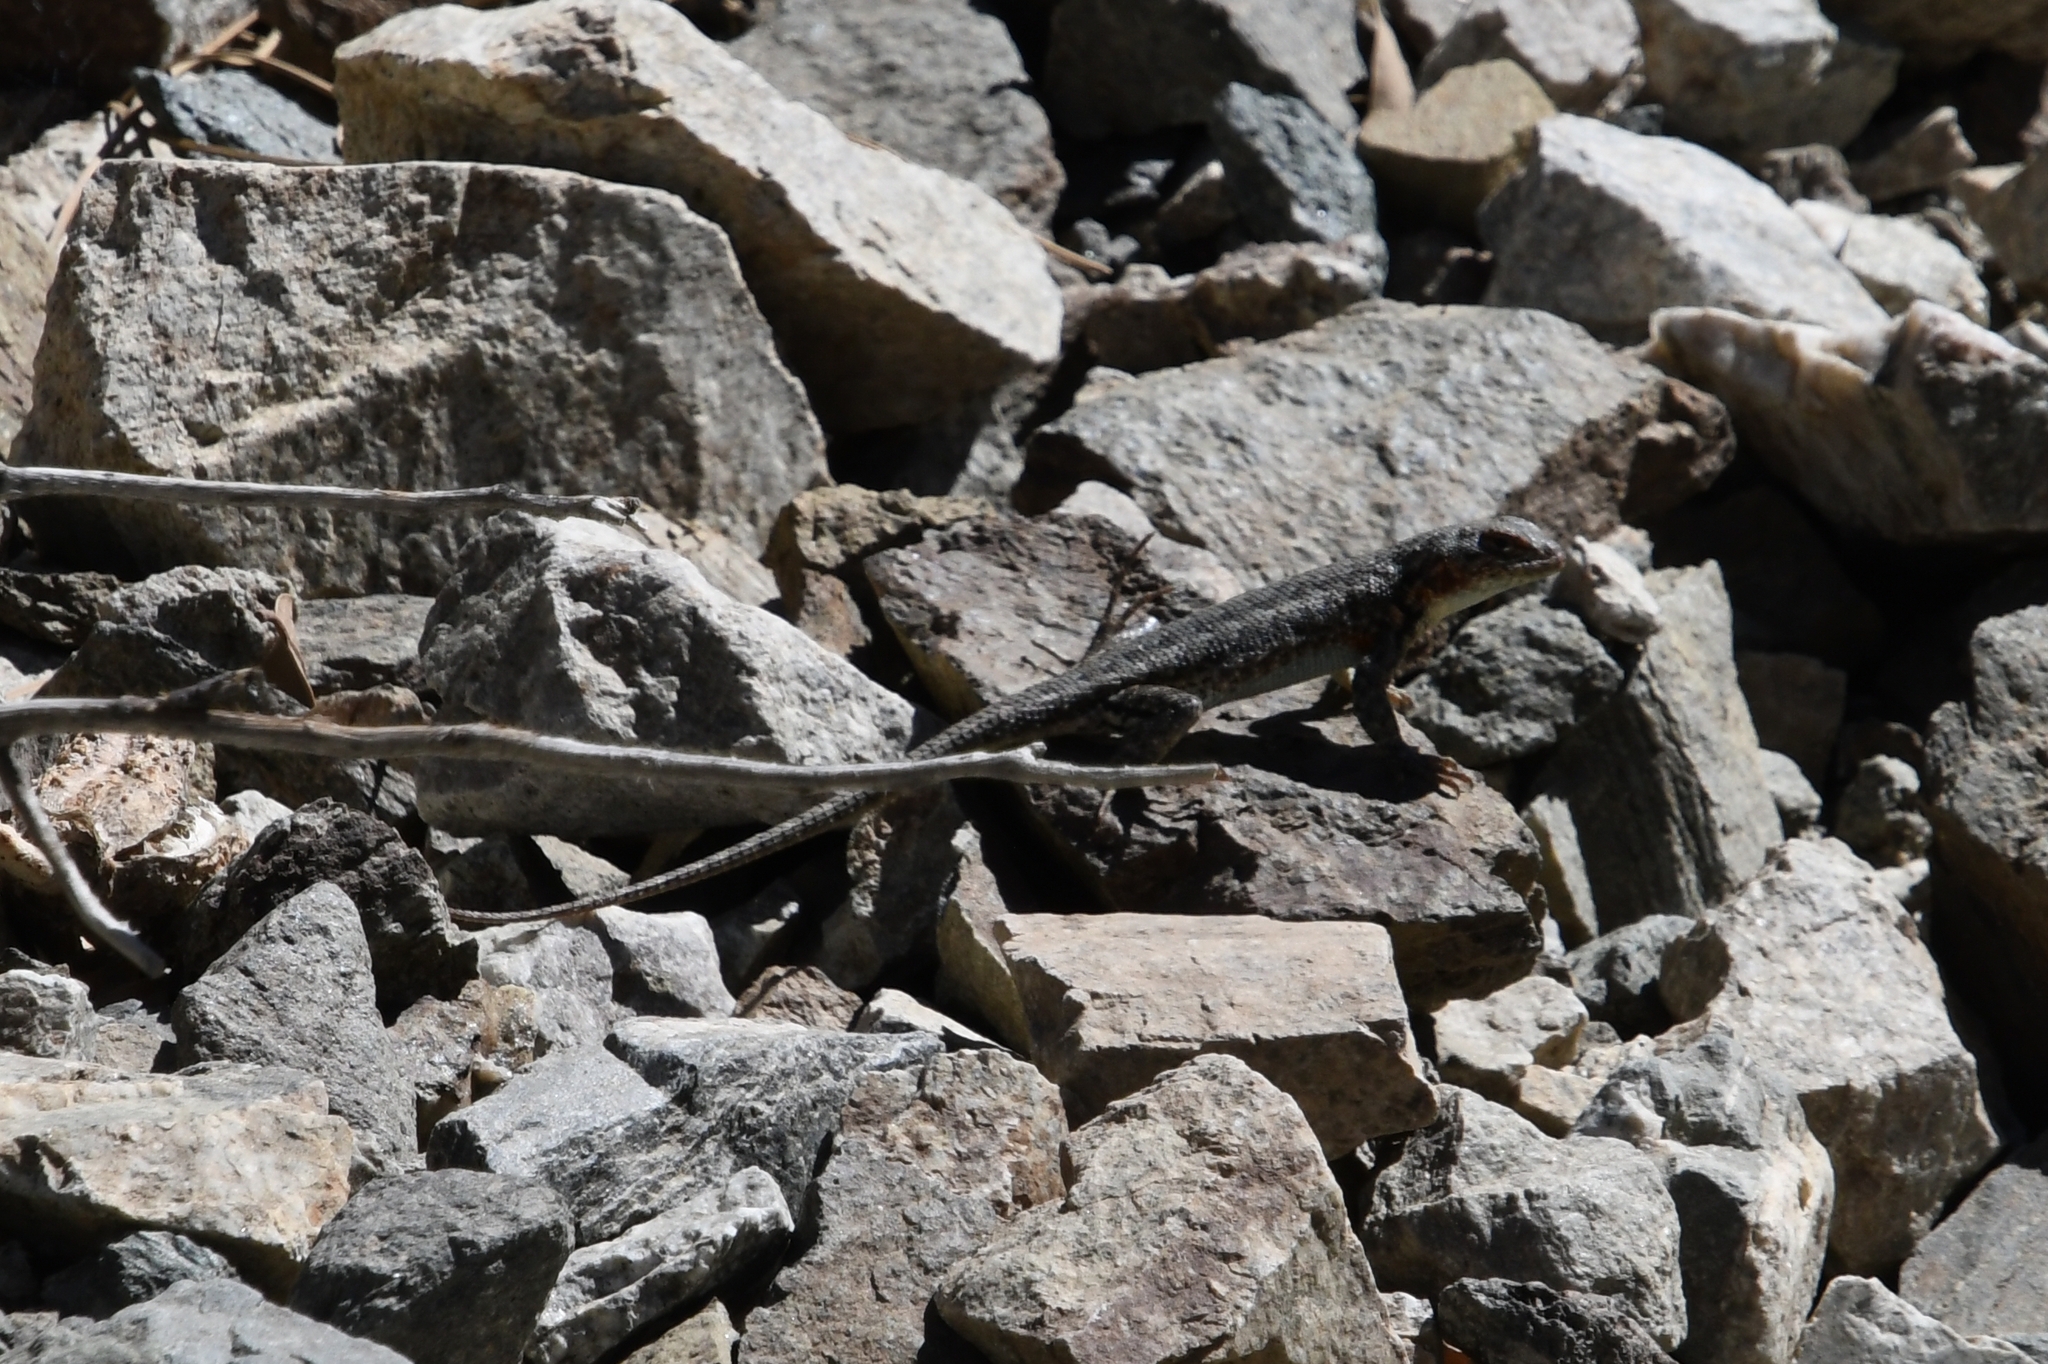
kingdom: Animalia
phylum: Chordata
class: Squamata
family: Phrynosomatidae
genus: Sceloporus
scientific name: Sceloporus graciosus
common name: Sagebrush lizard
